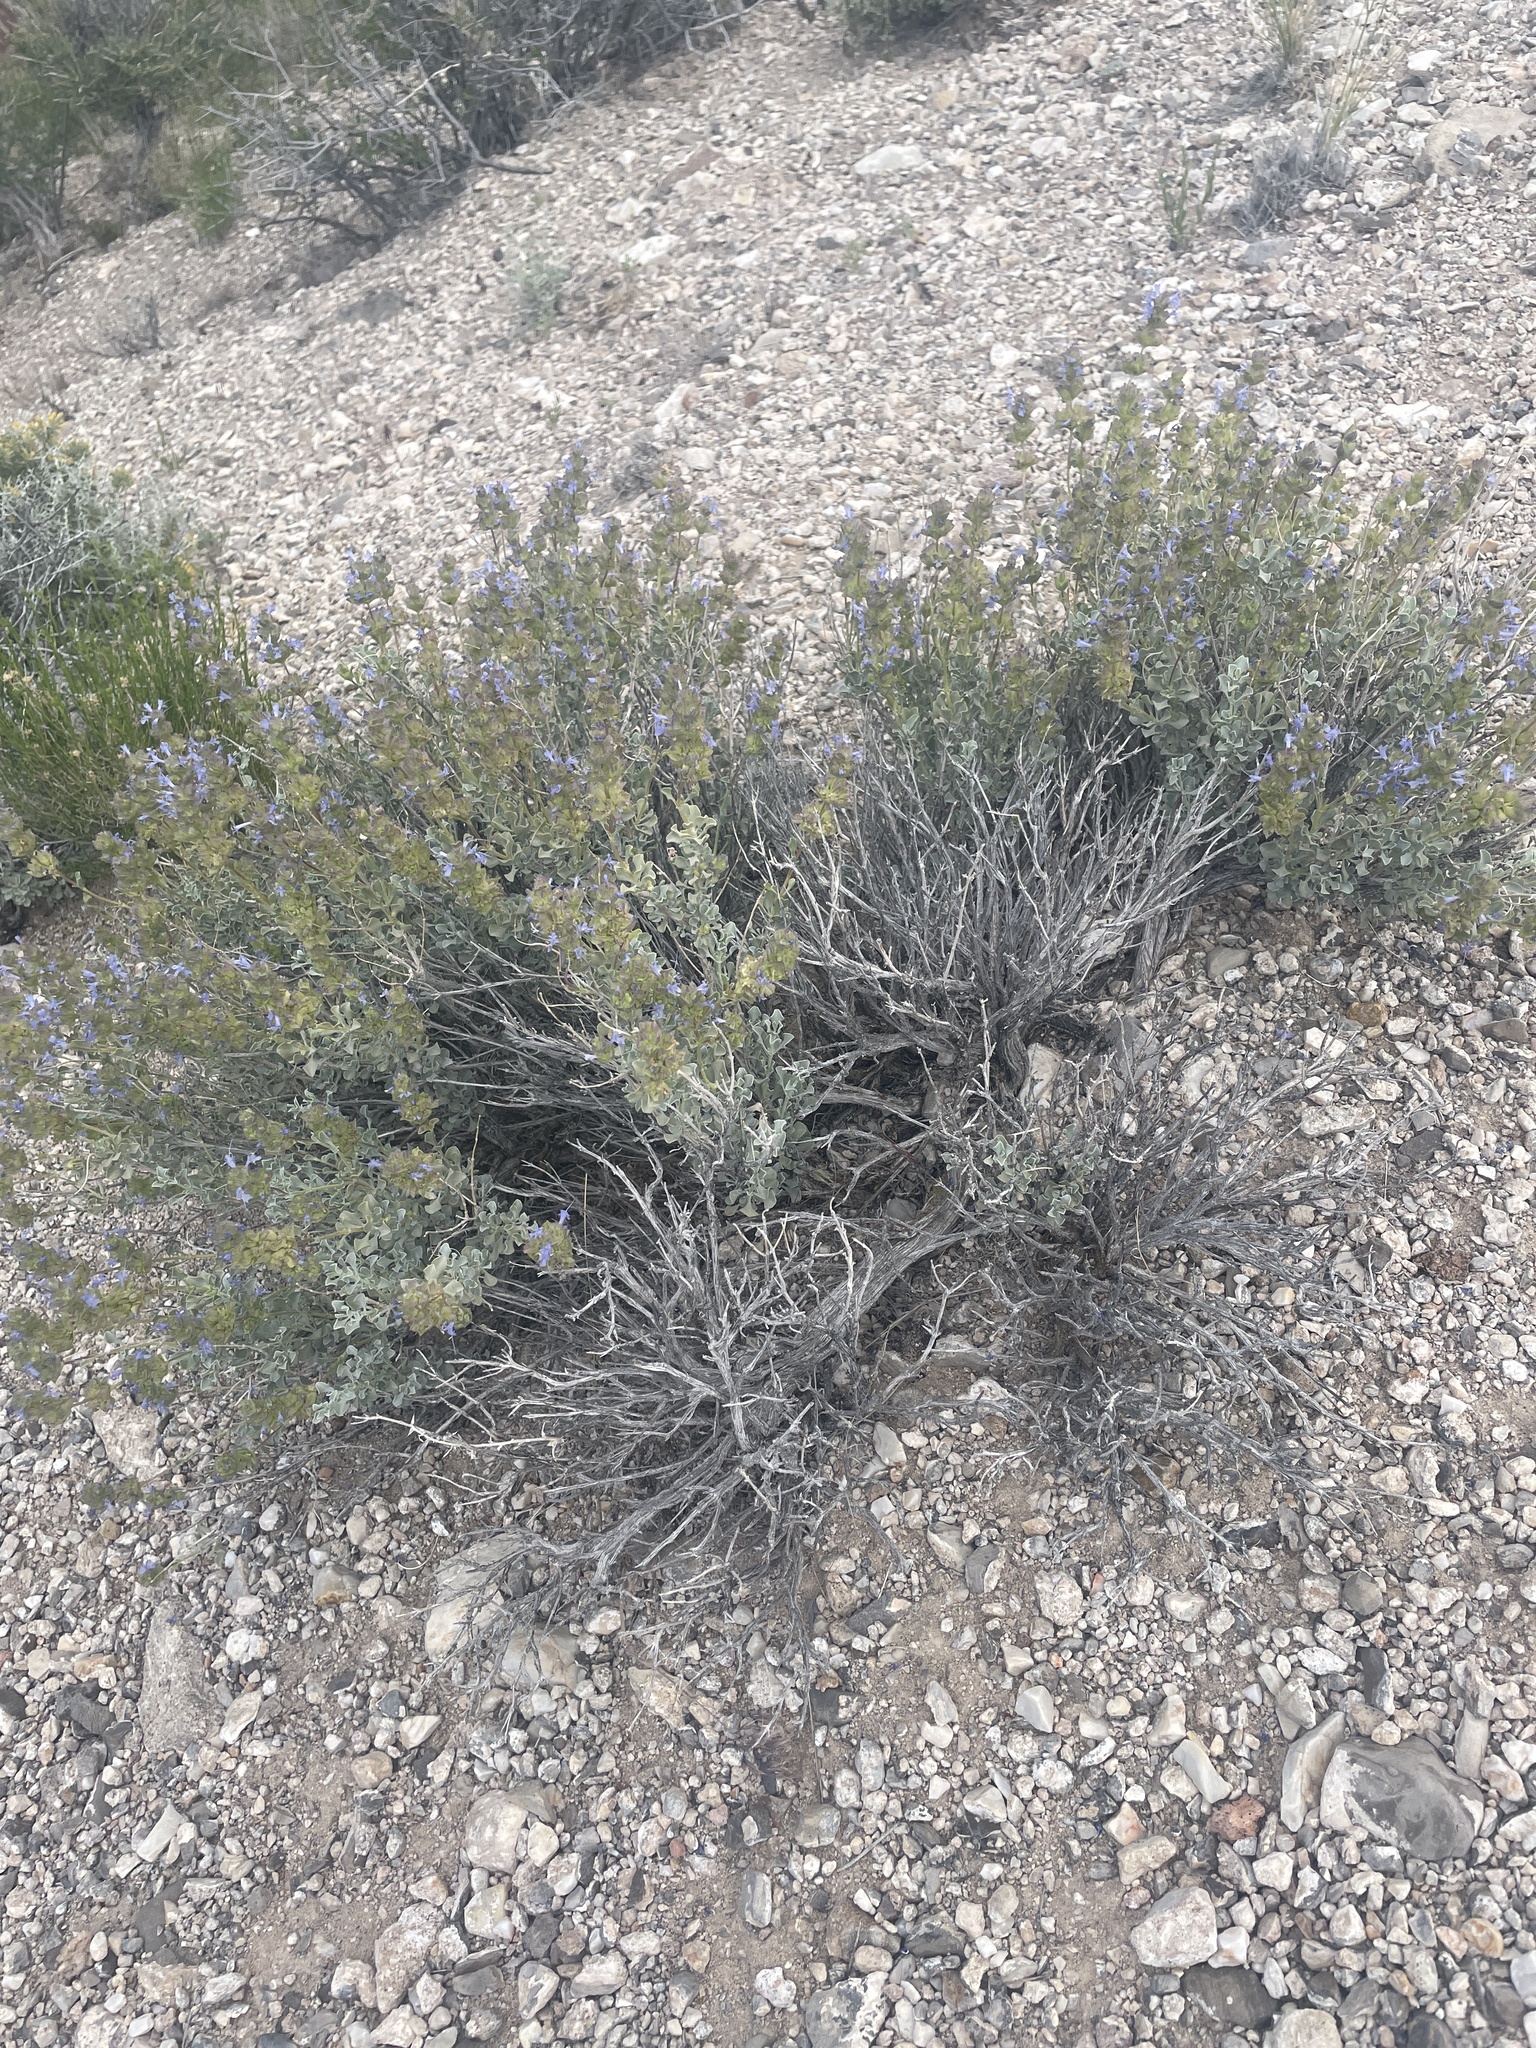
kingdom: Plantae
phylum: Tracheophyta
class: Magnoliopsida
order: Lamiales
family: Lamiaceae
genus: Salvia
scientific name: Salvia dorrii
